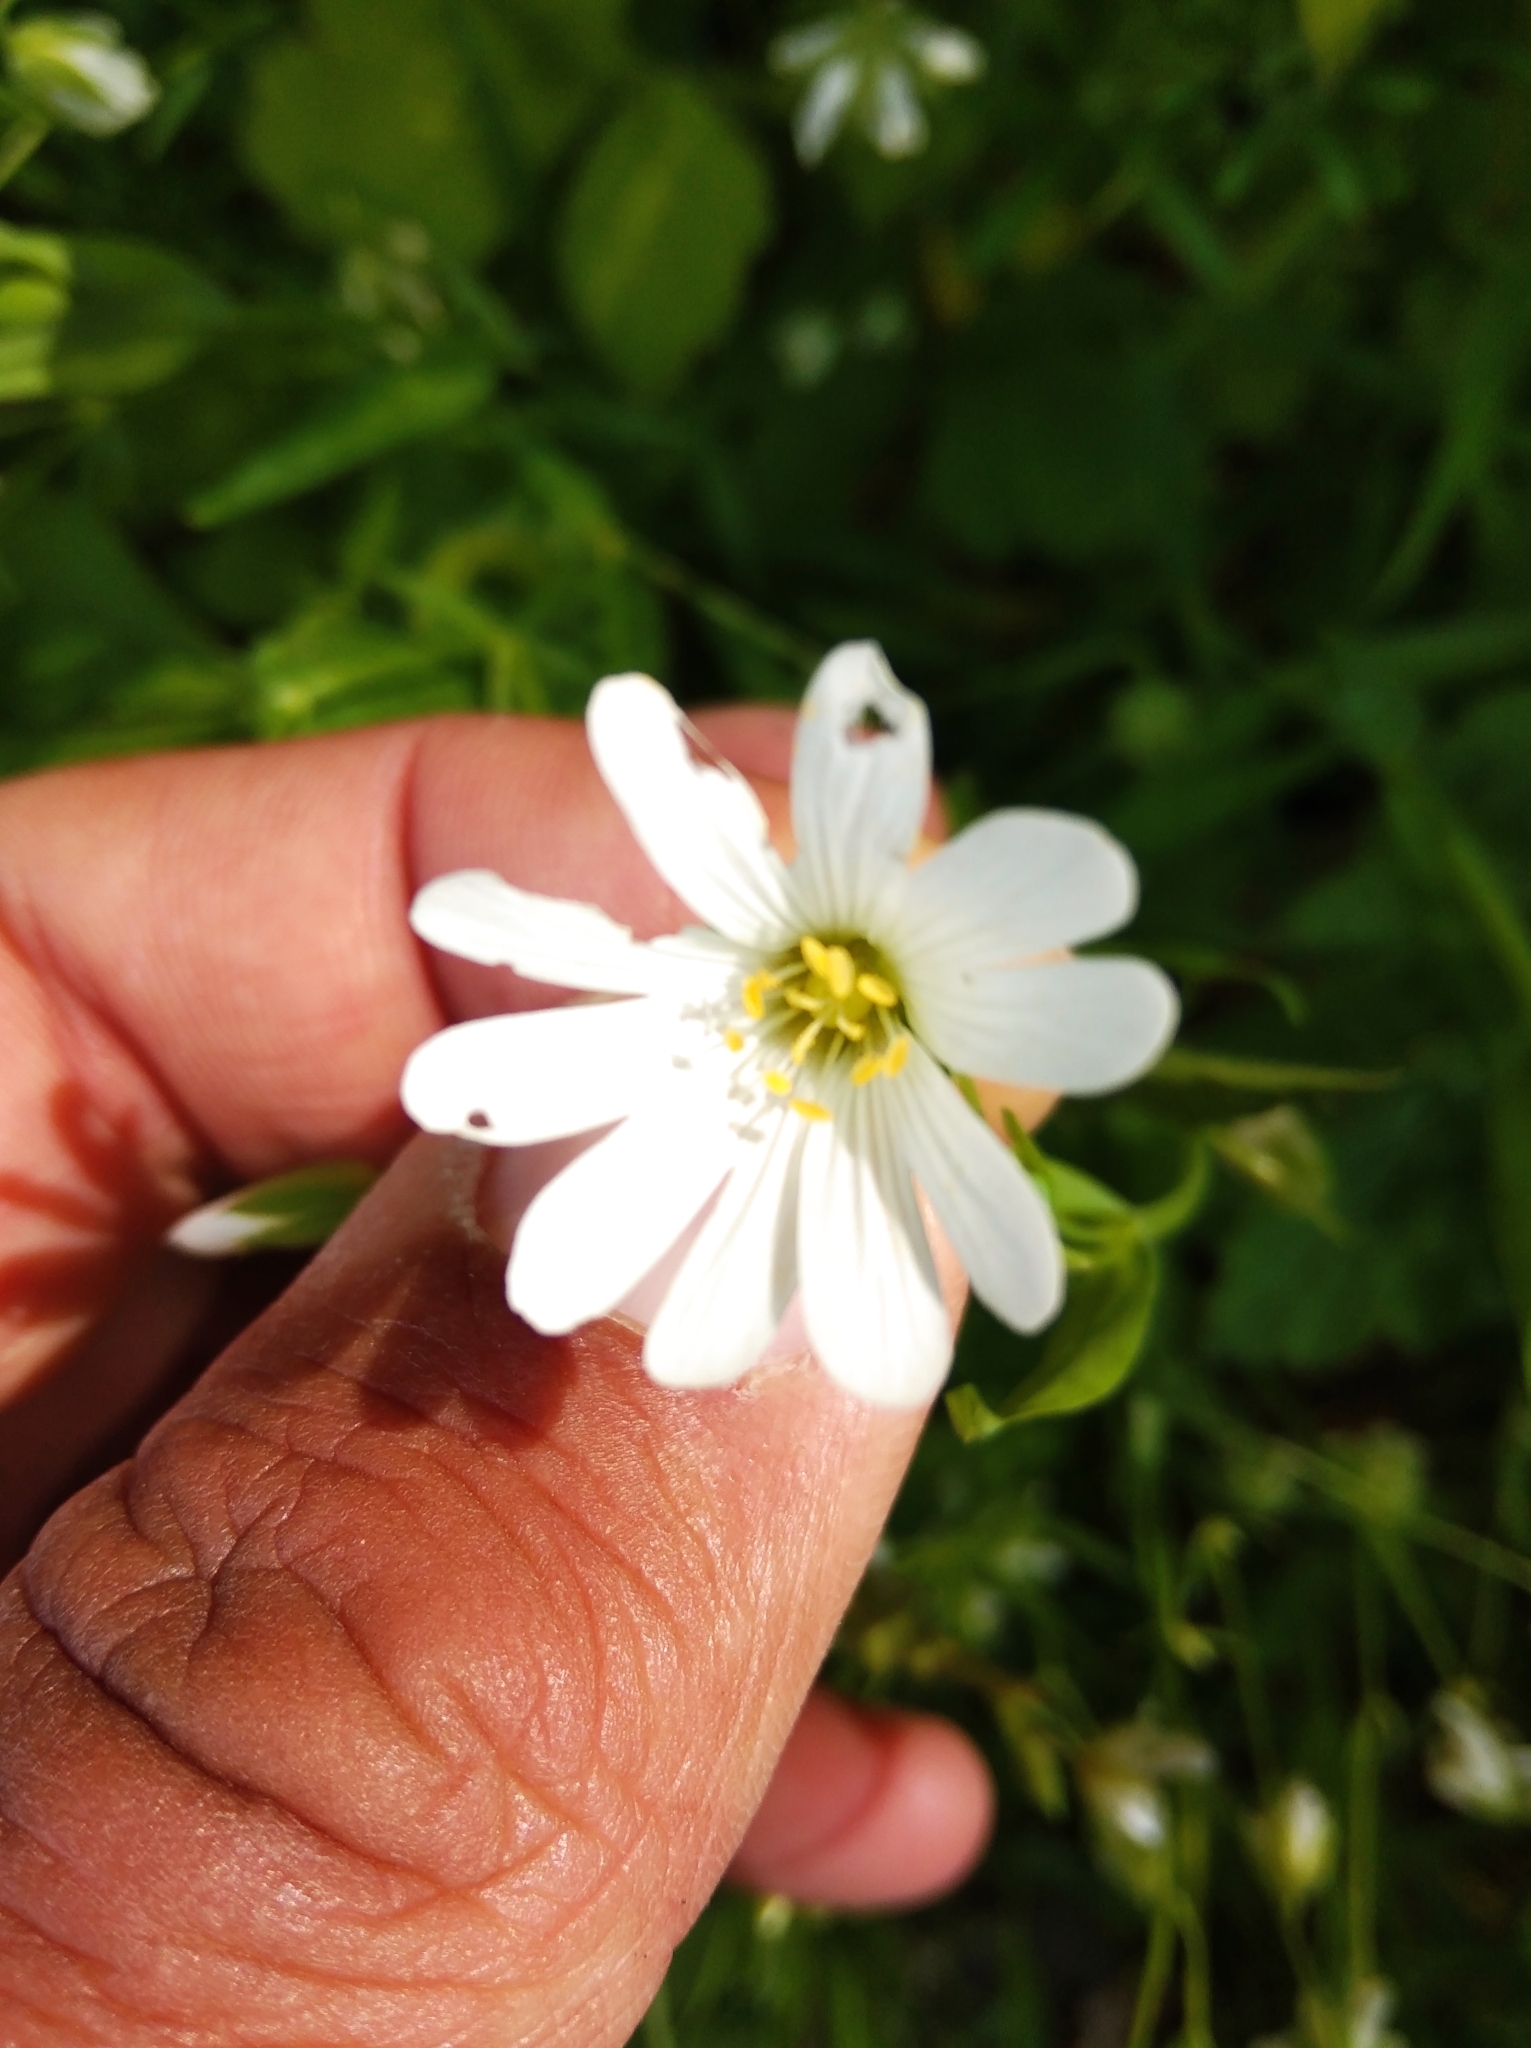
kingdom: Plantae
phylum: Tracheophyta
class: Magnoliopsida
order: Caryophyllales
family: Caryophyllaceae
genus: Rabelera
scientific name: Rabelera holostea
